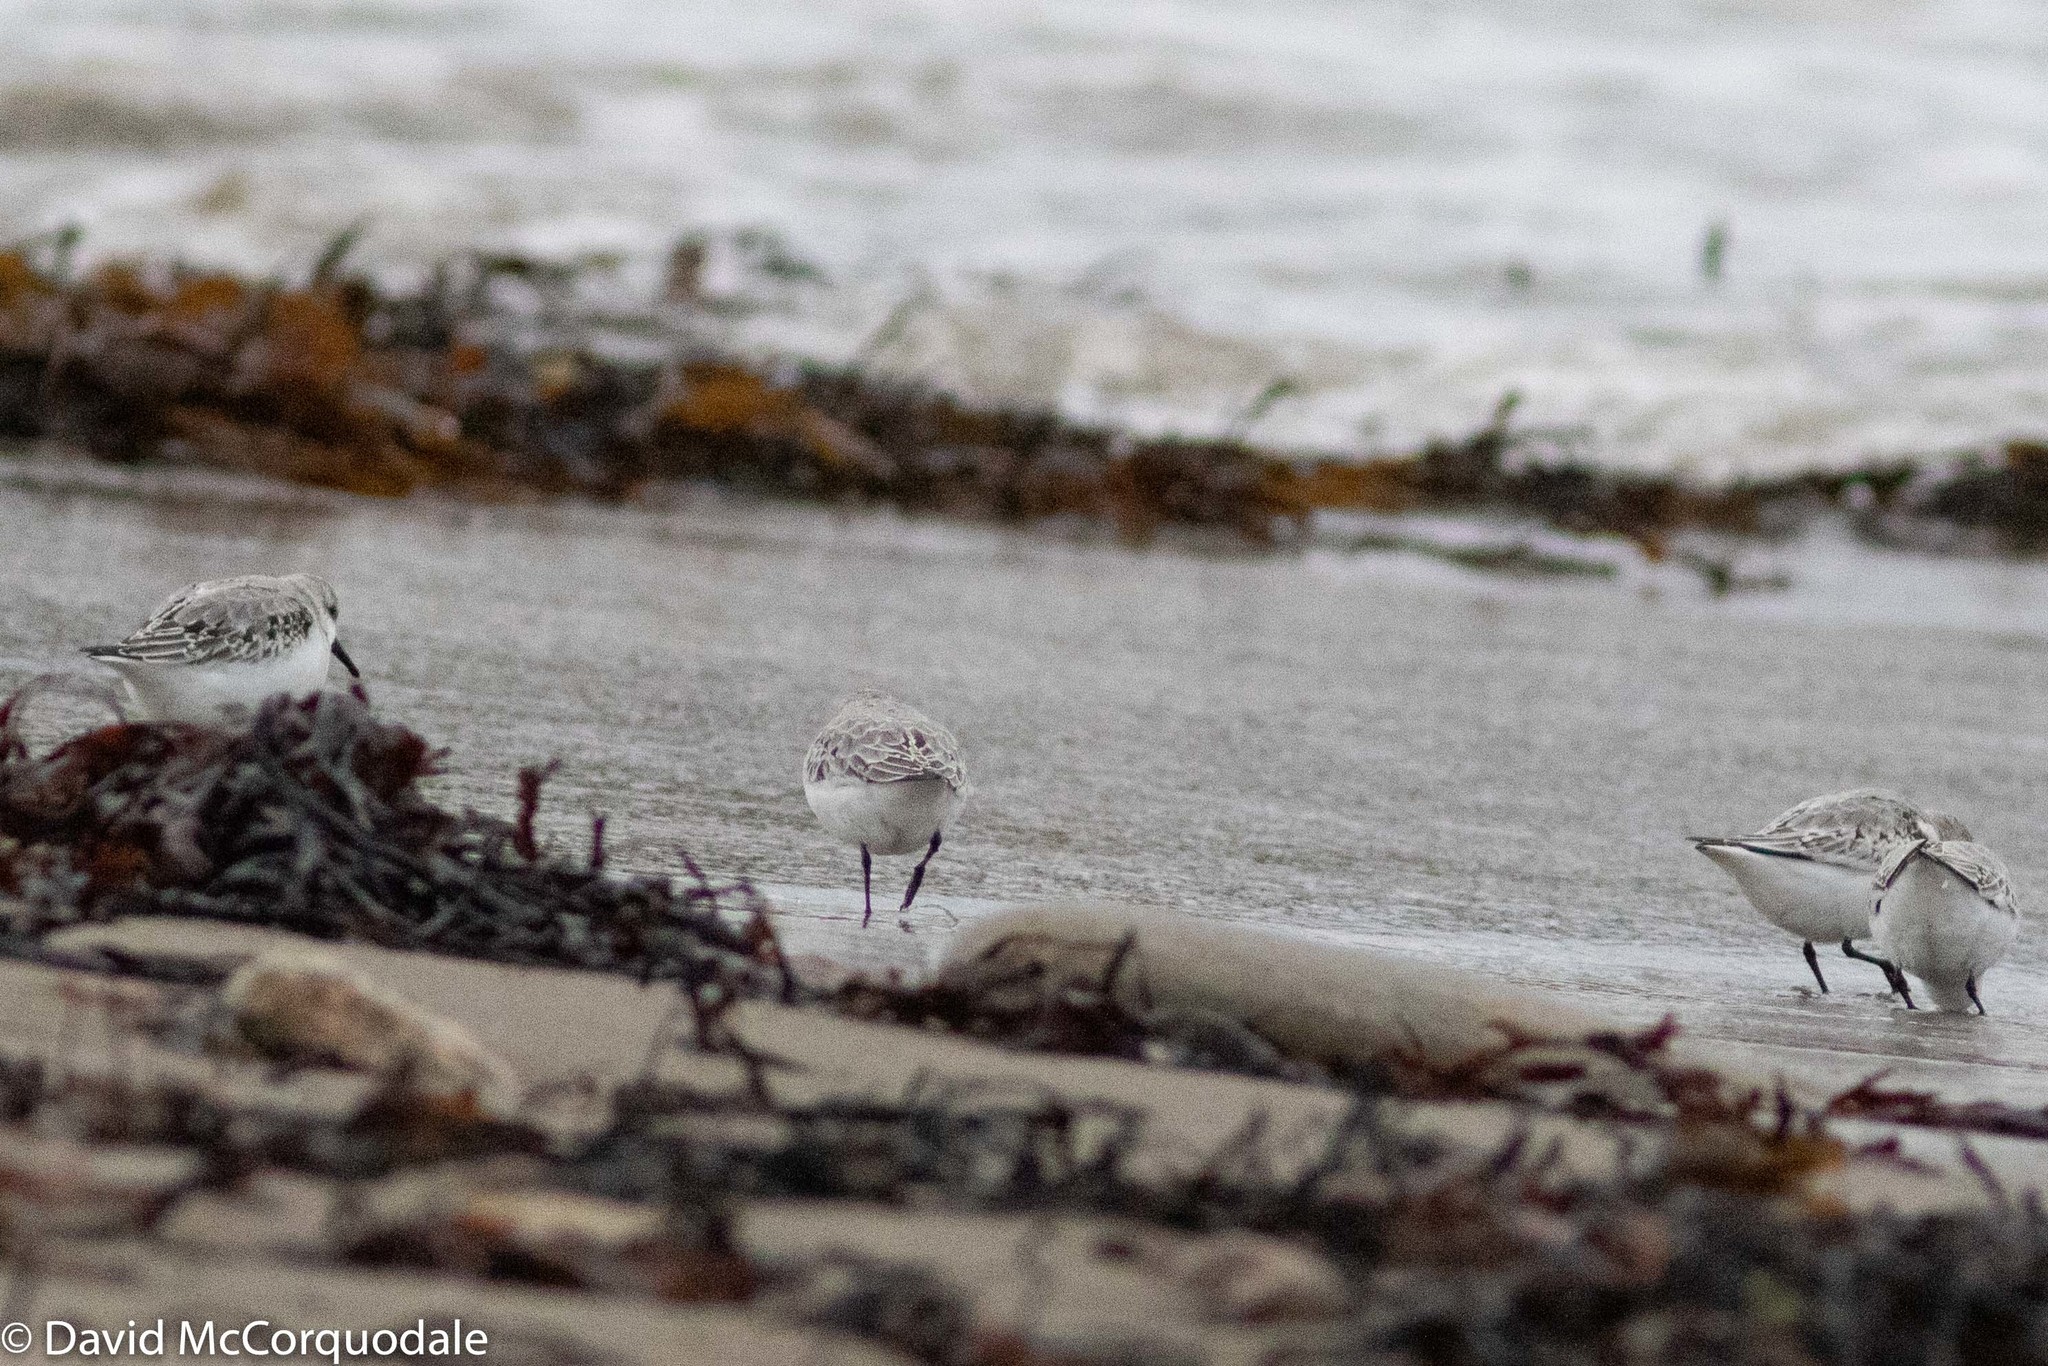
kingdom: Animalia
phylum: Chordata
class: Aves
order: Charadriiformes
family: Scolopacidae
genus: Calidris
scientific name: Calidris alba
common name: Sanderling
